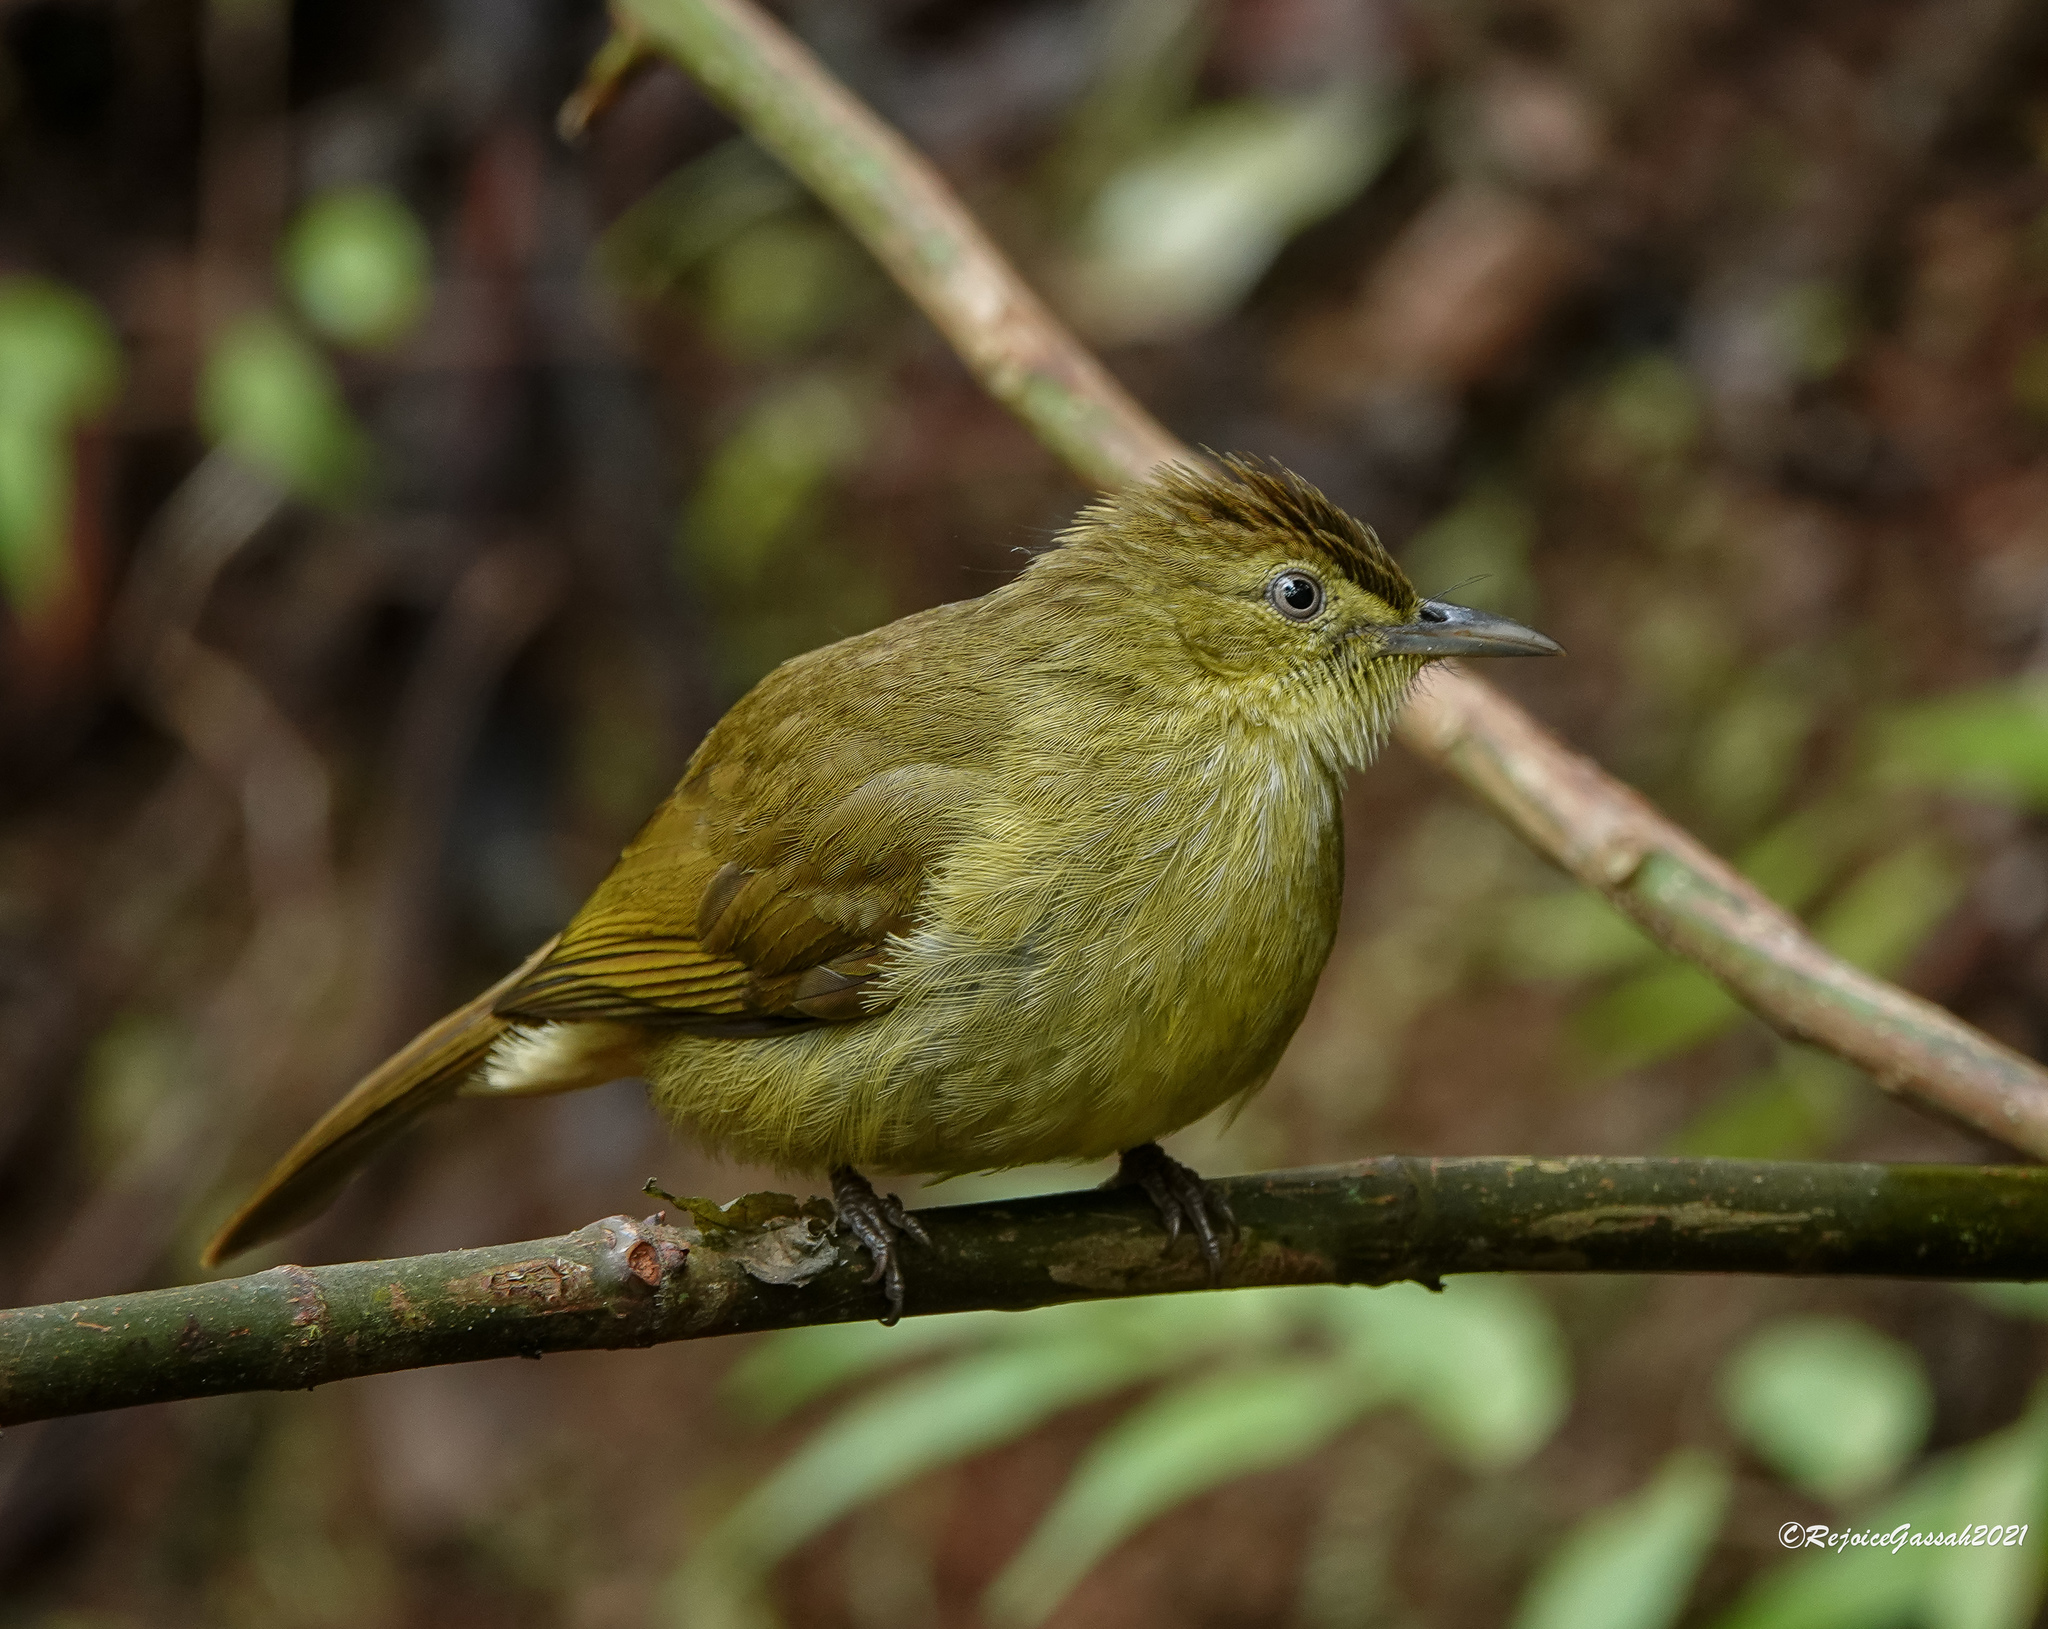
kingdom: Animalia
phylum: Chordata
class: Aves
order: Passeriformes
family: Pycnonotidae
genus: Iole
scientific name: Iole virescens
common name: Olive bulbul
